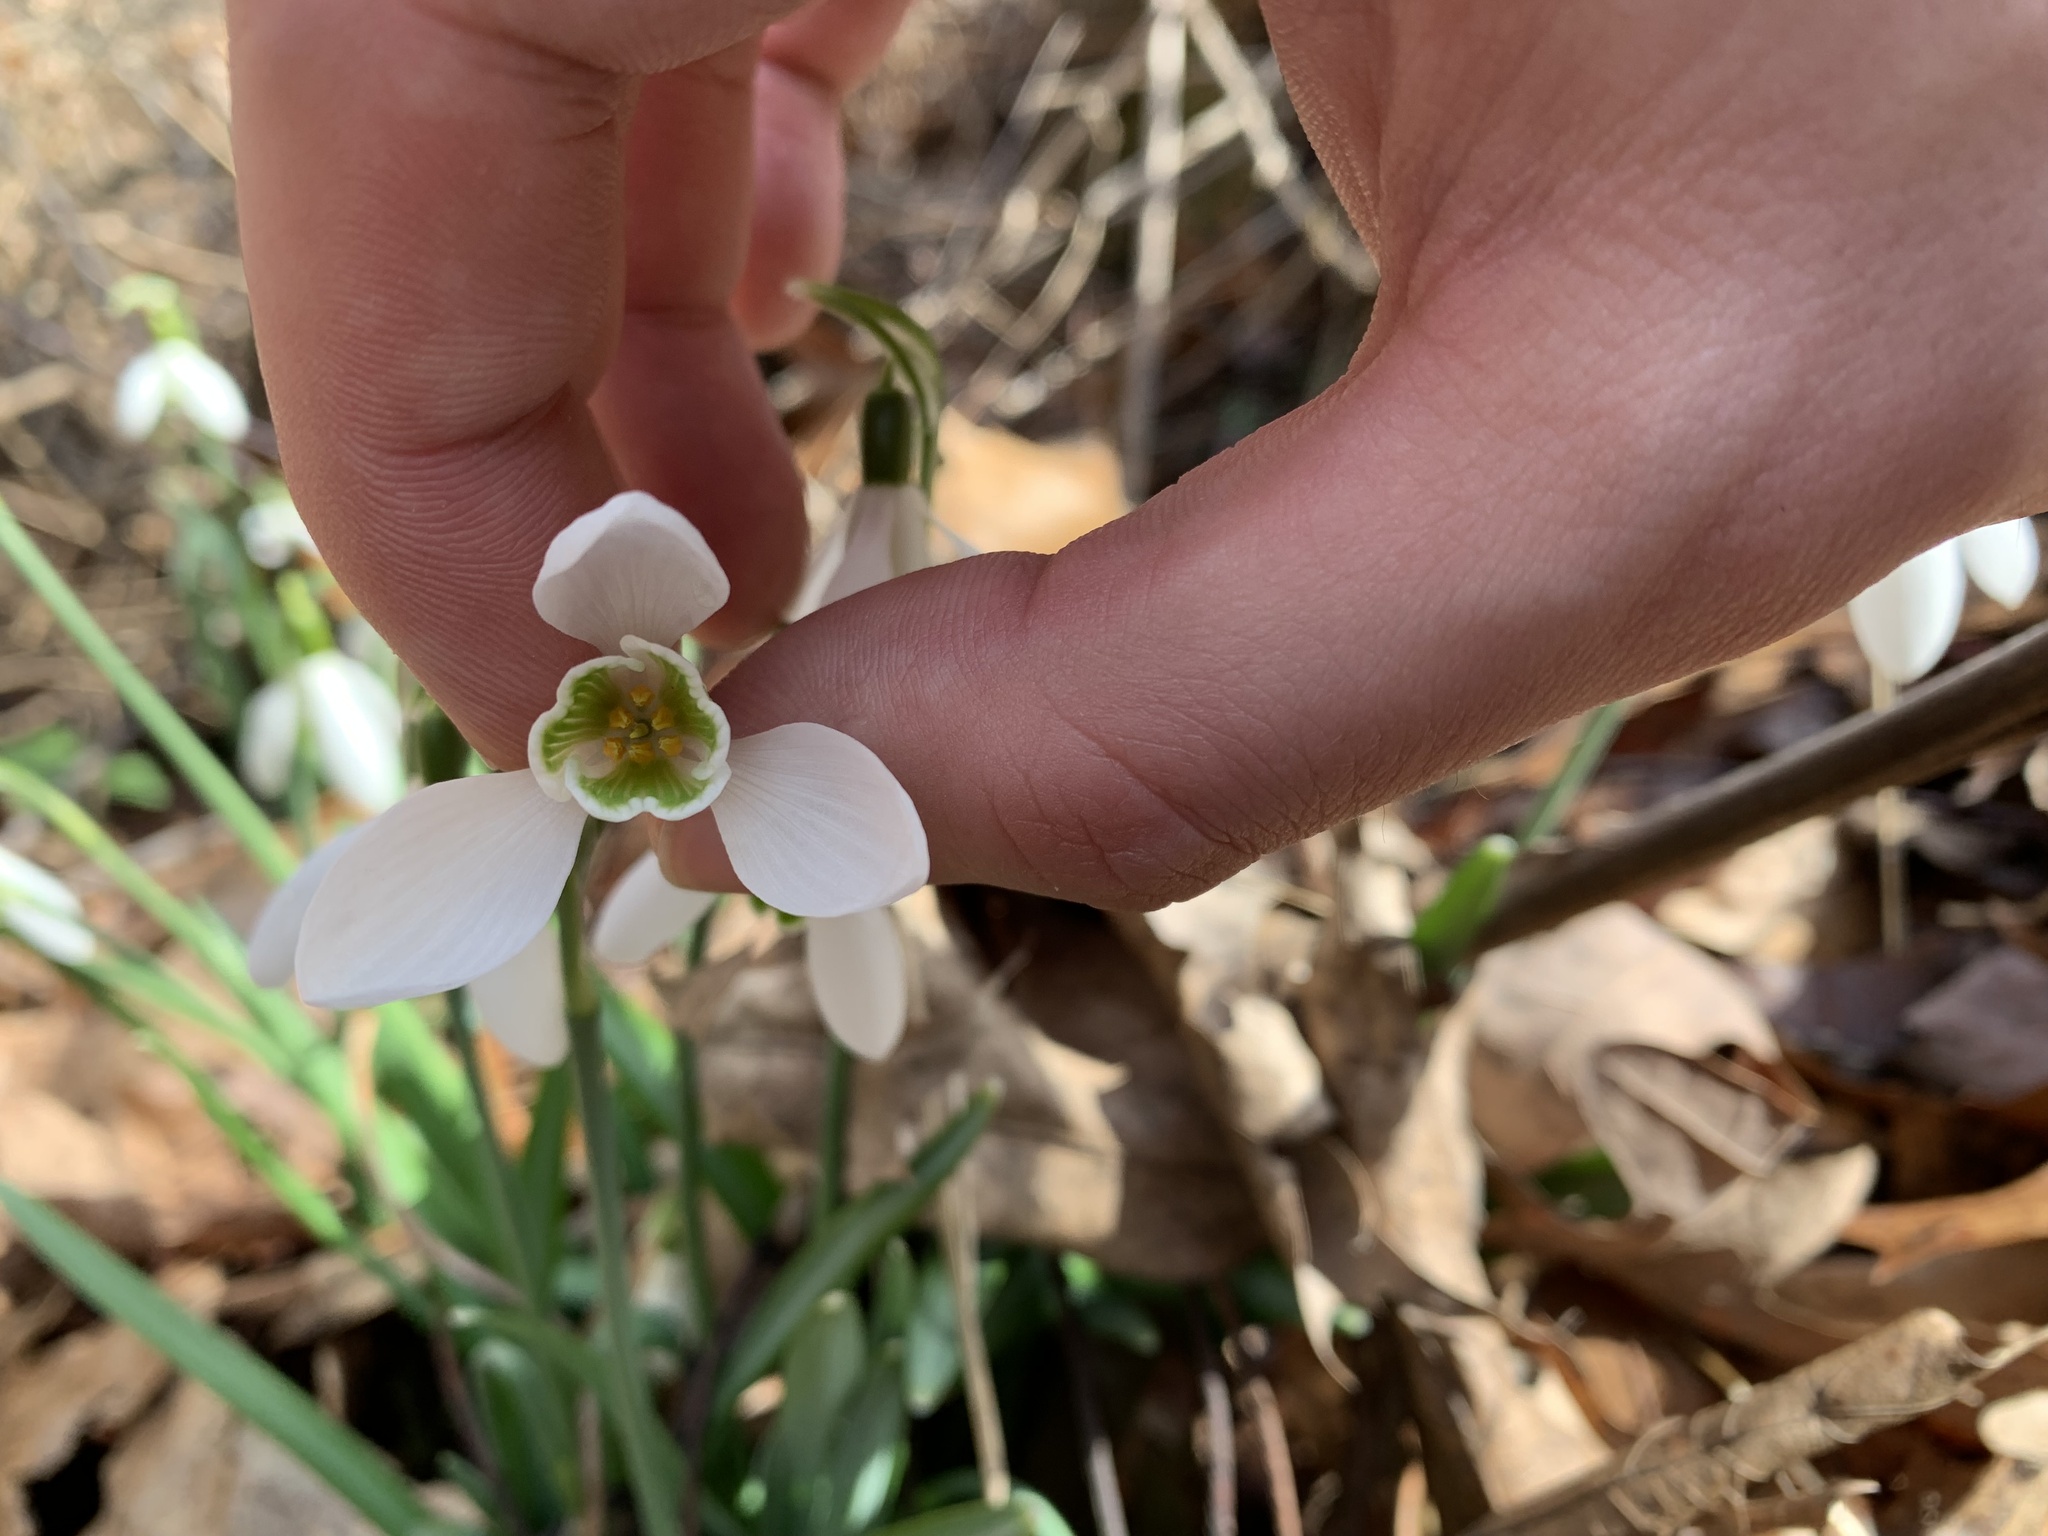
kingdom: Plantae
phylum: Tracheophyta
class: Liliopsida
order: Asparagales
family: Amaryllidaceae
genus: Galanthus
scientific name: Galanthus nivalis
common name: Snowdrop
